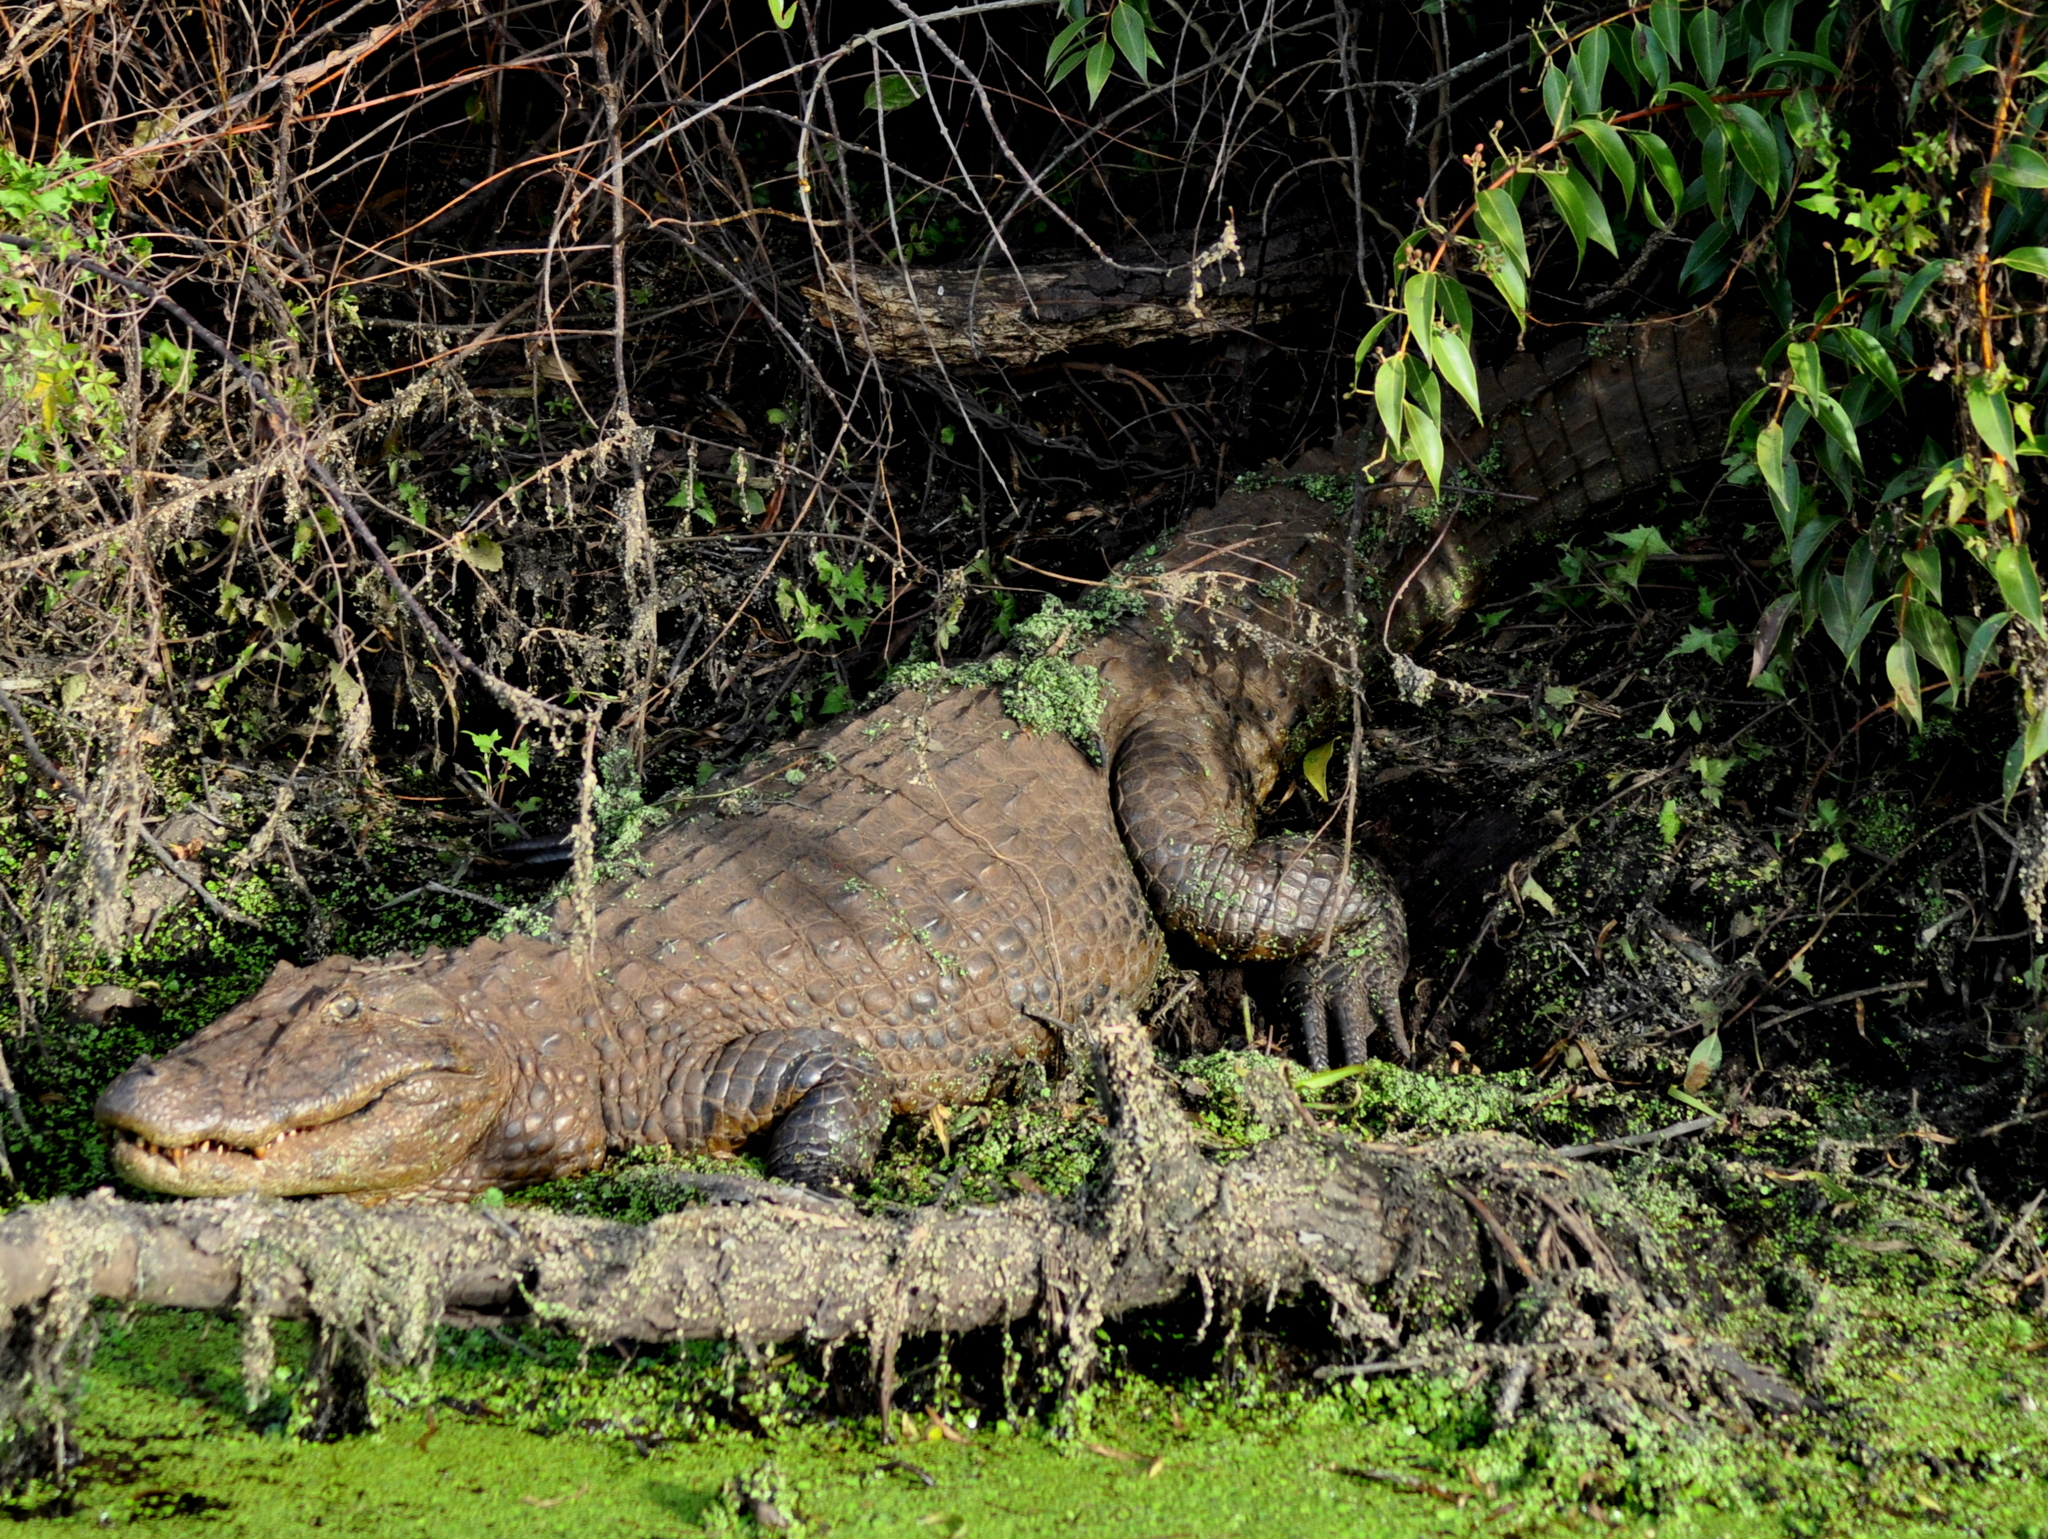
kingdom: Animalia
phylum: Chordata
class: Crocodylia
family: Alligatoridae
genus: Caiman
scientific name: Caiman latirostris
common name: Broad-snouted caiman
